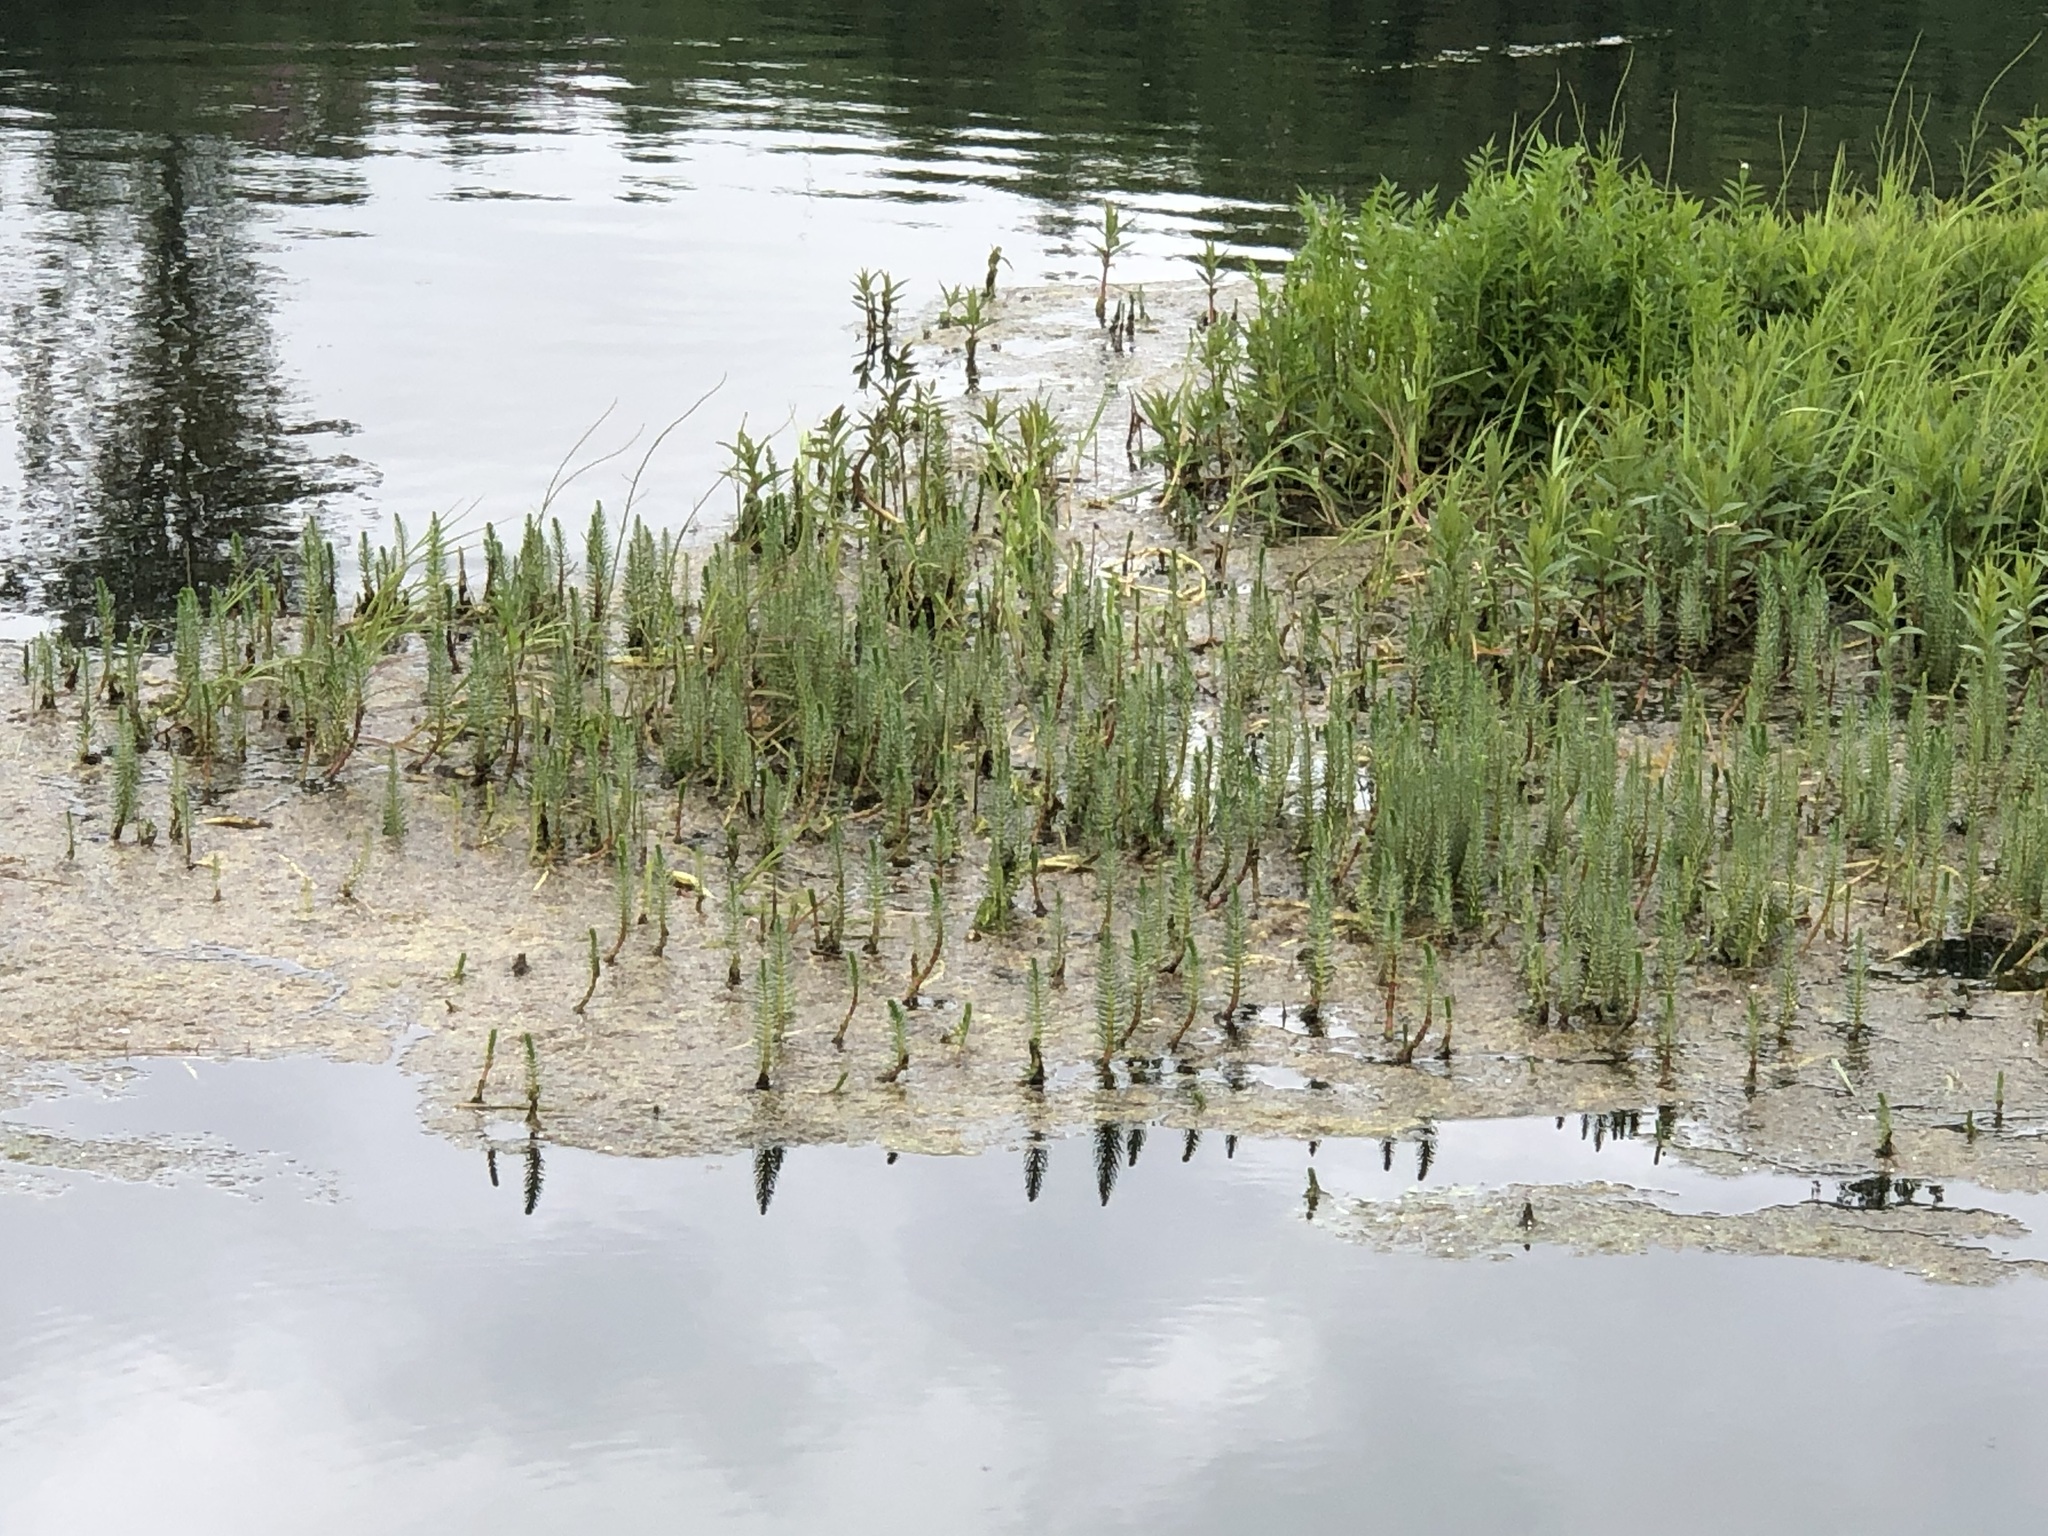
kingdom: Plantae
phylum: Tracheophyta
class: Magnoliopsida
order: Lamiales
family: Plantaginaceae
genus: Hippuris
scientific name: Hippuris vulgaris
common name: Mare's-tail
